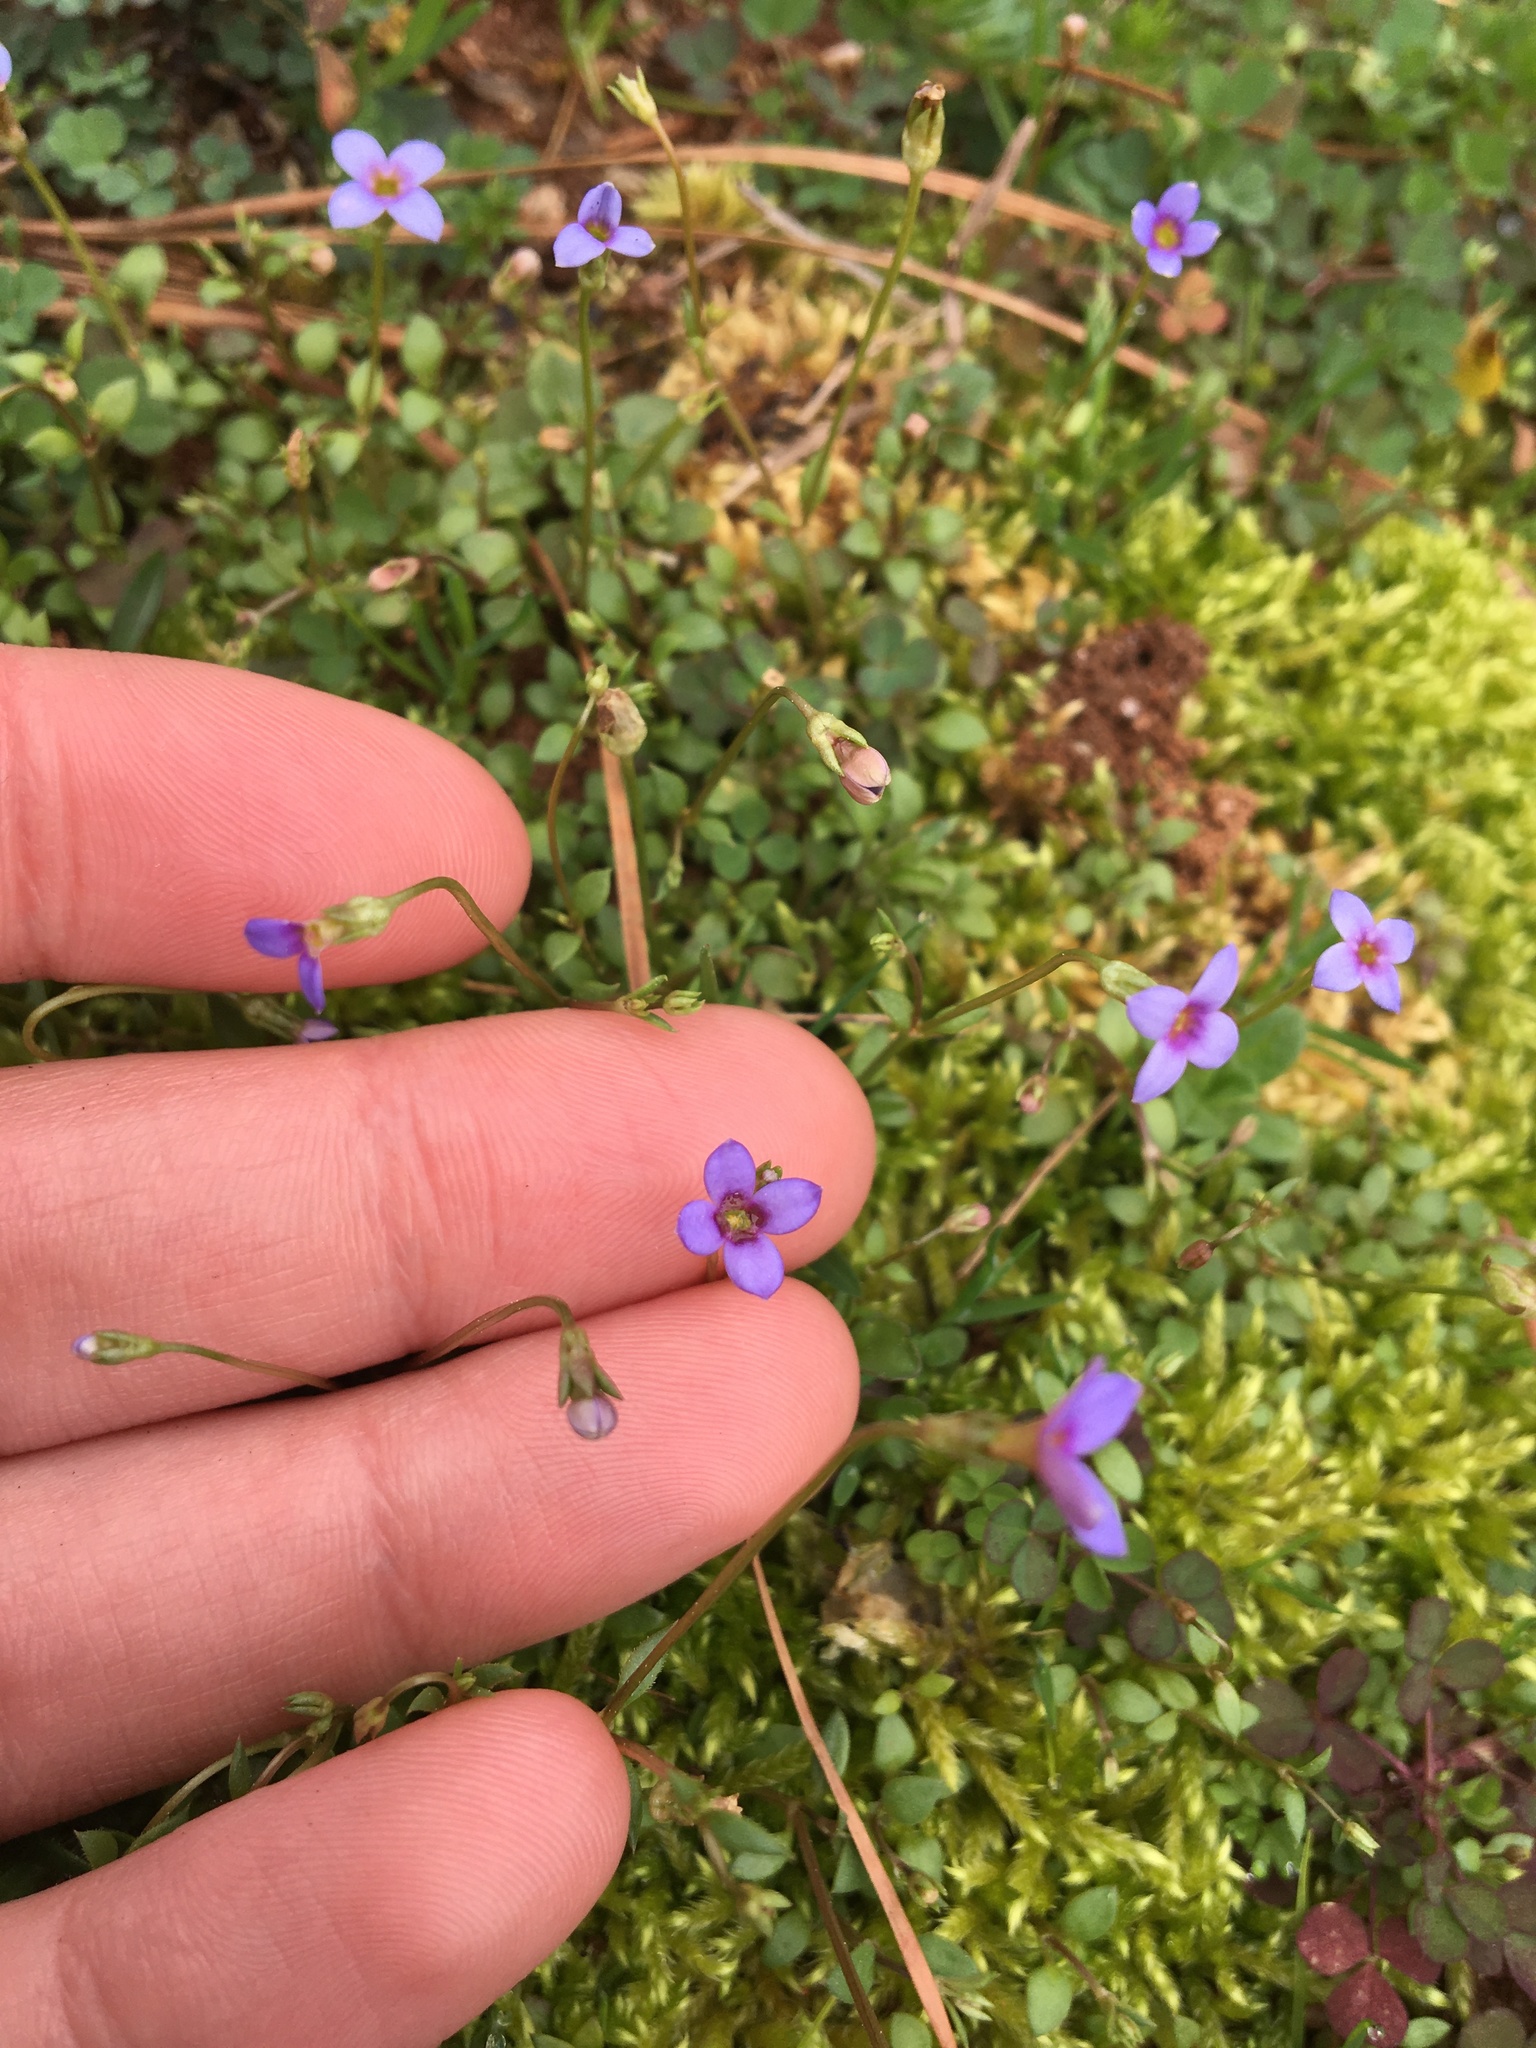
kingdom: Plantae
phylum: Tracheophyta
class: Magnoliopsida
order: Gentianales
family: Rubiaceae
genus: Houstonia
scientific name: Houstonia pusilla
